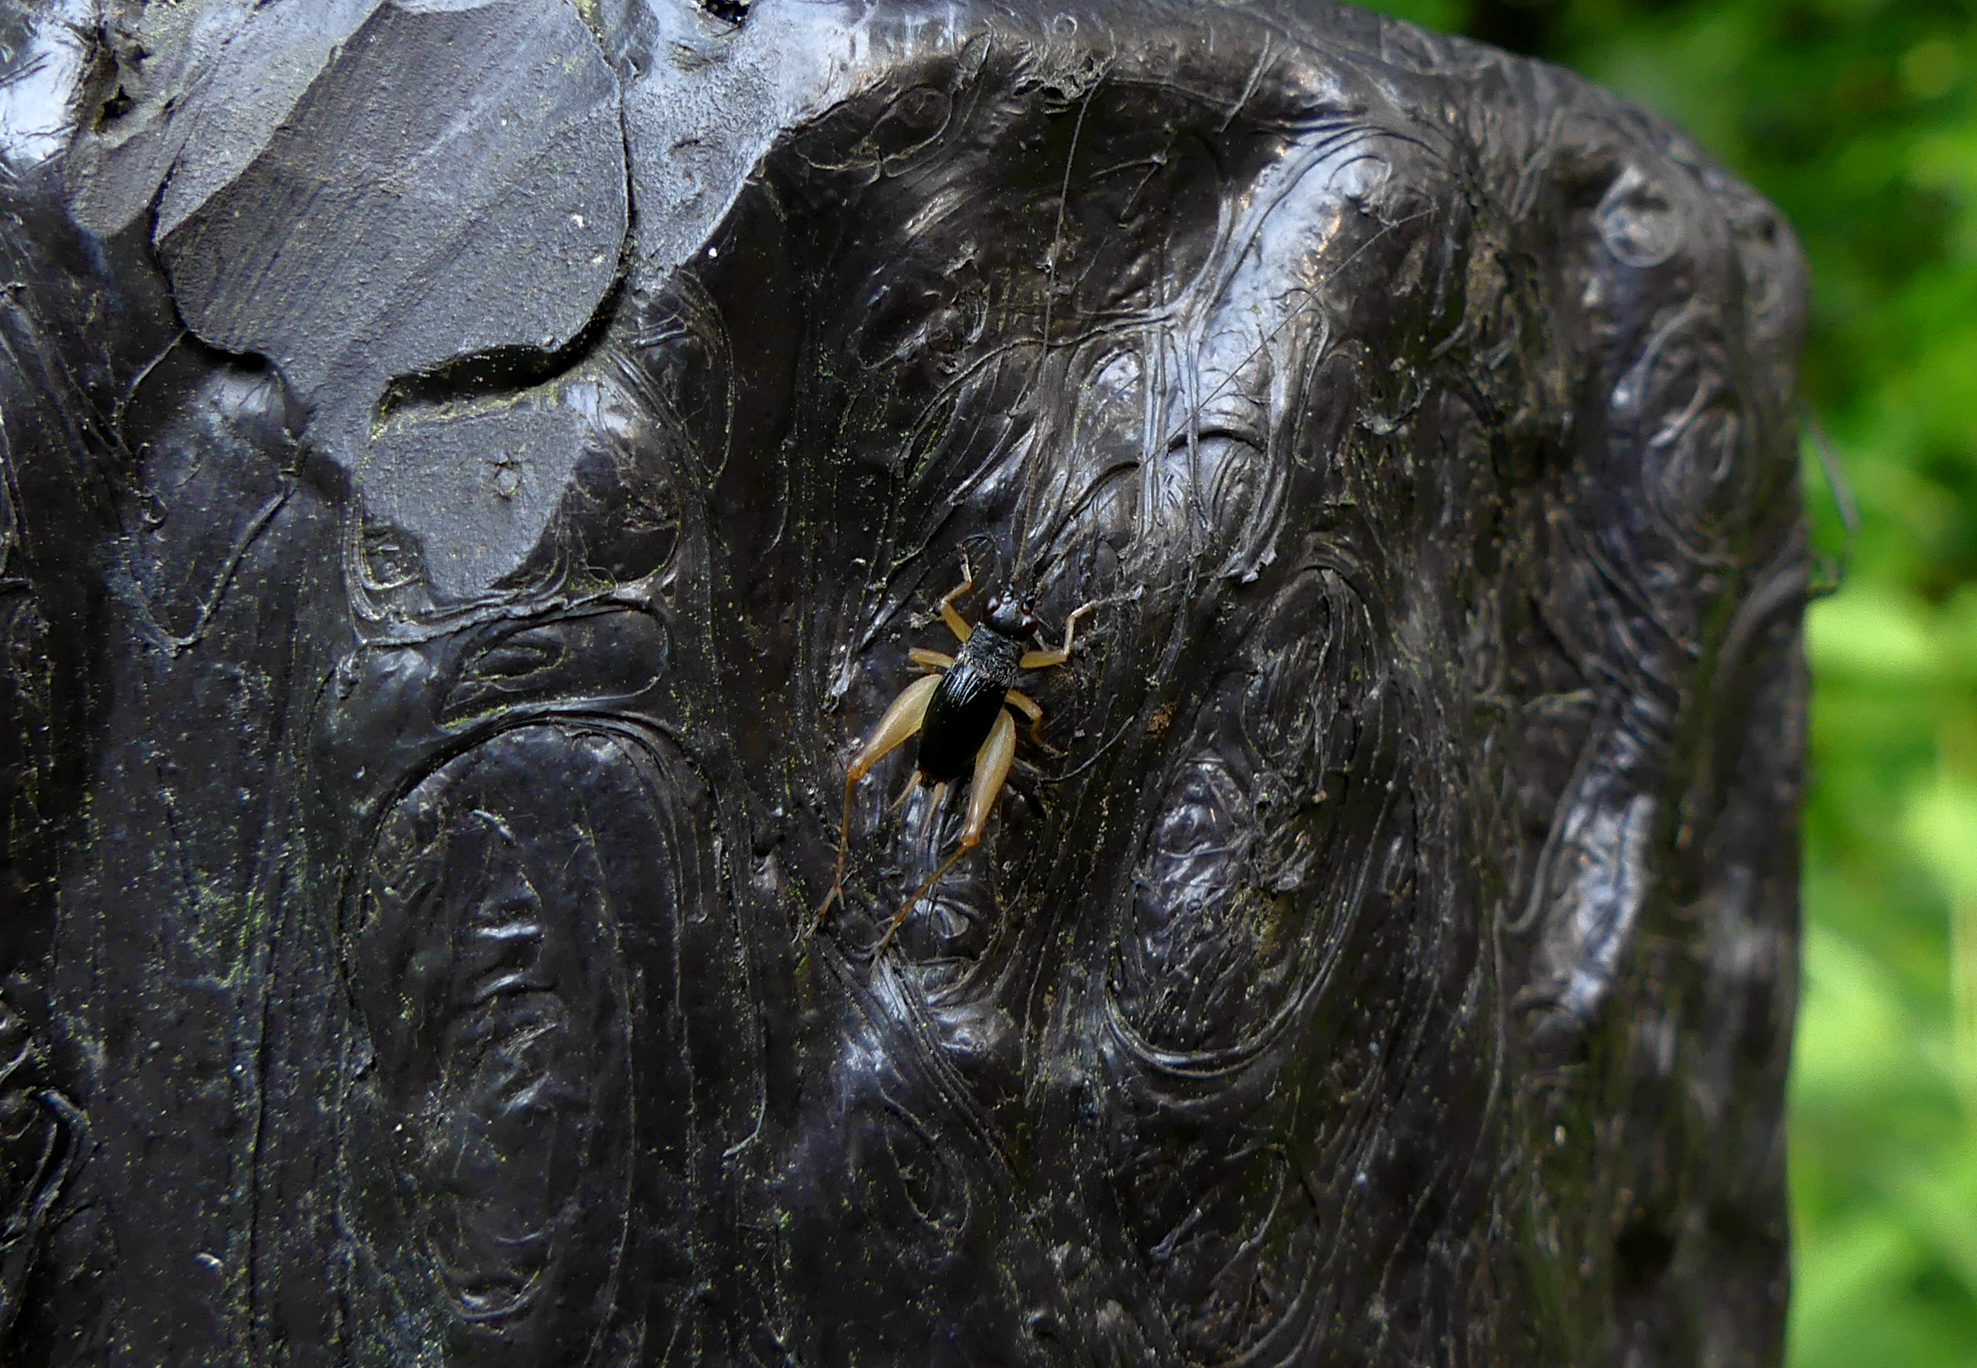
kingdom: Animalia
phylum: Arthropoda
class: Insecta
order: Orthoptera
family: Trigonidiidae
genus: Trigonidium
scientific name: Trigonidium japonicum
